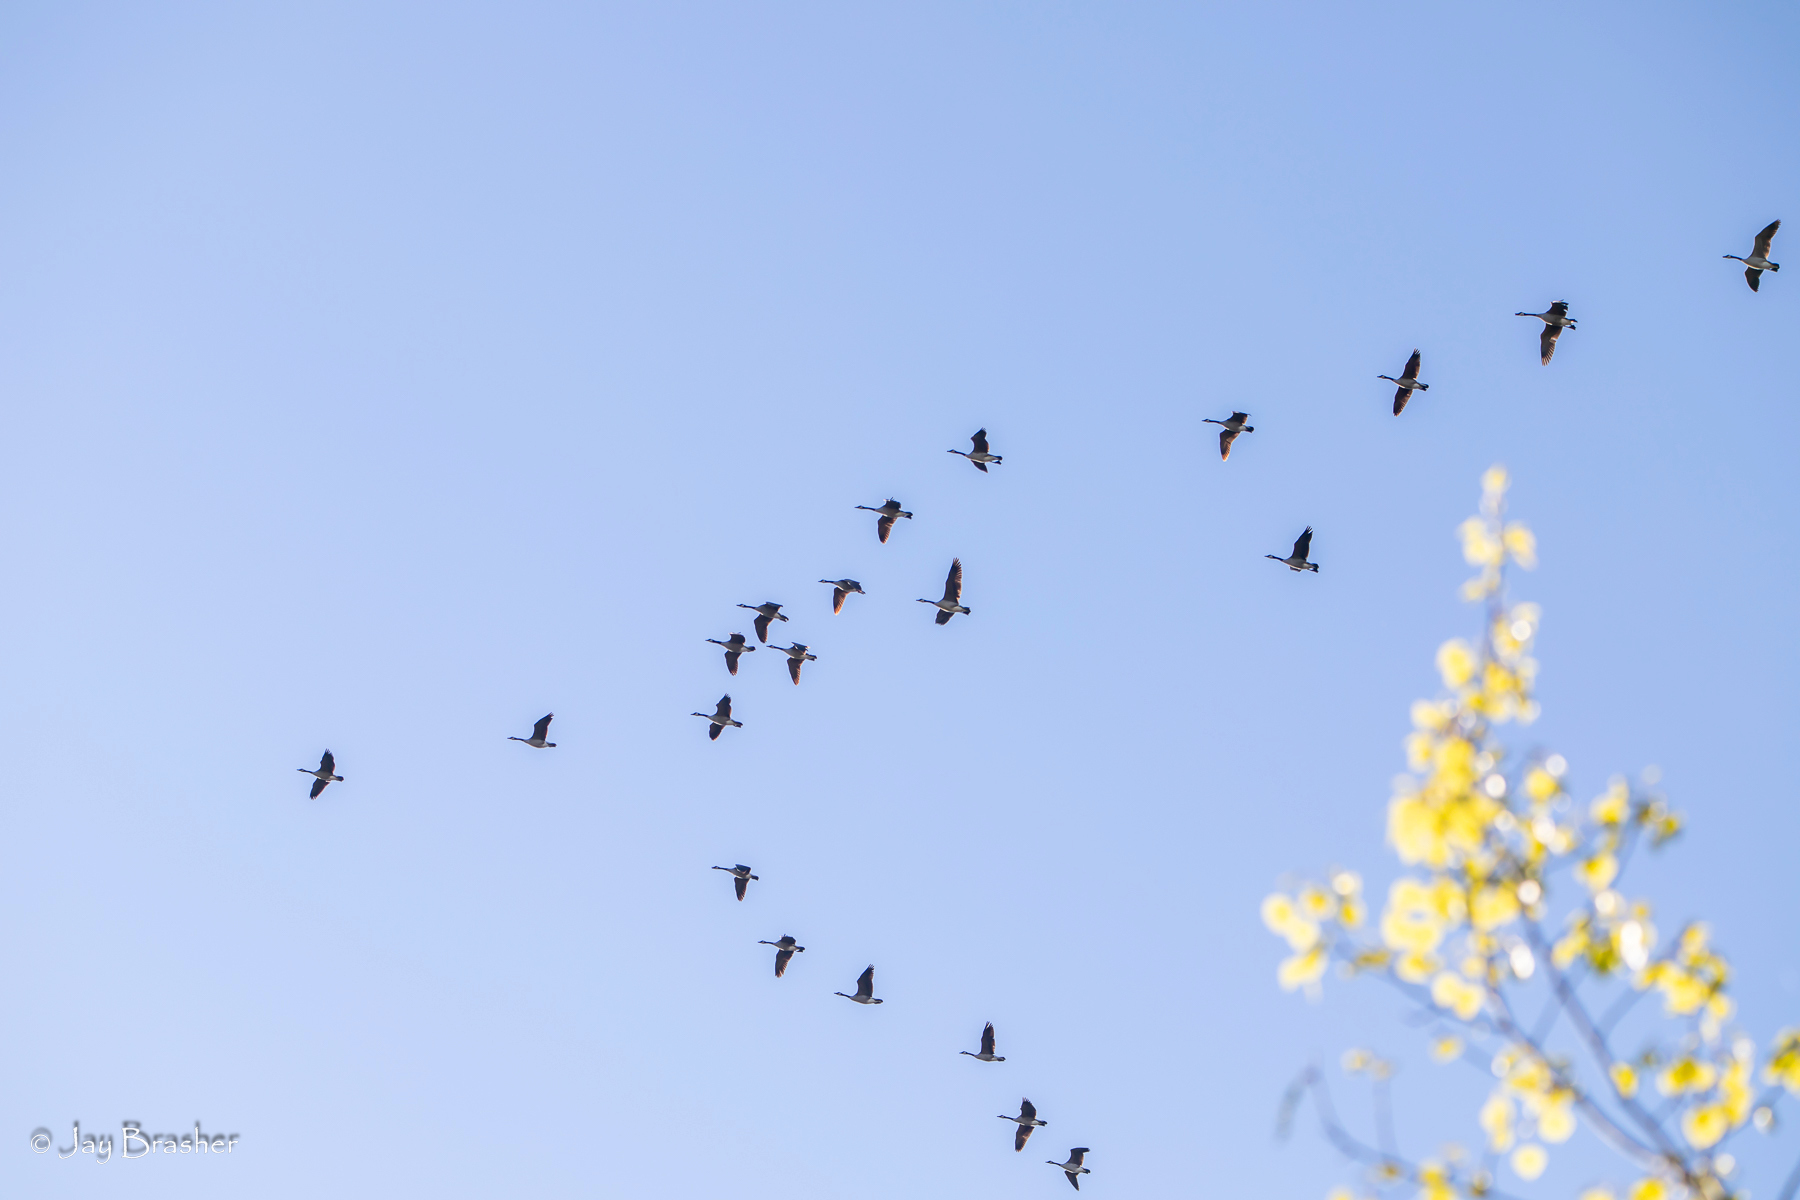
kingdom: Animalia
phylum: Chordata
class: Aves
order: Anseriformes
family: Anatidae
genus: Branta
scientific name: Branta canadensis
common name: Canada goose
